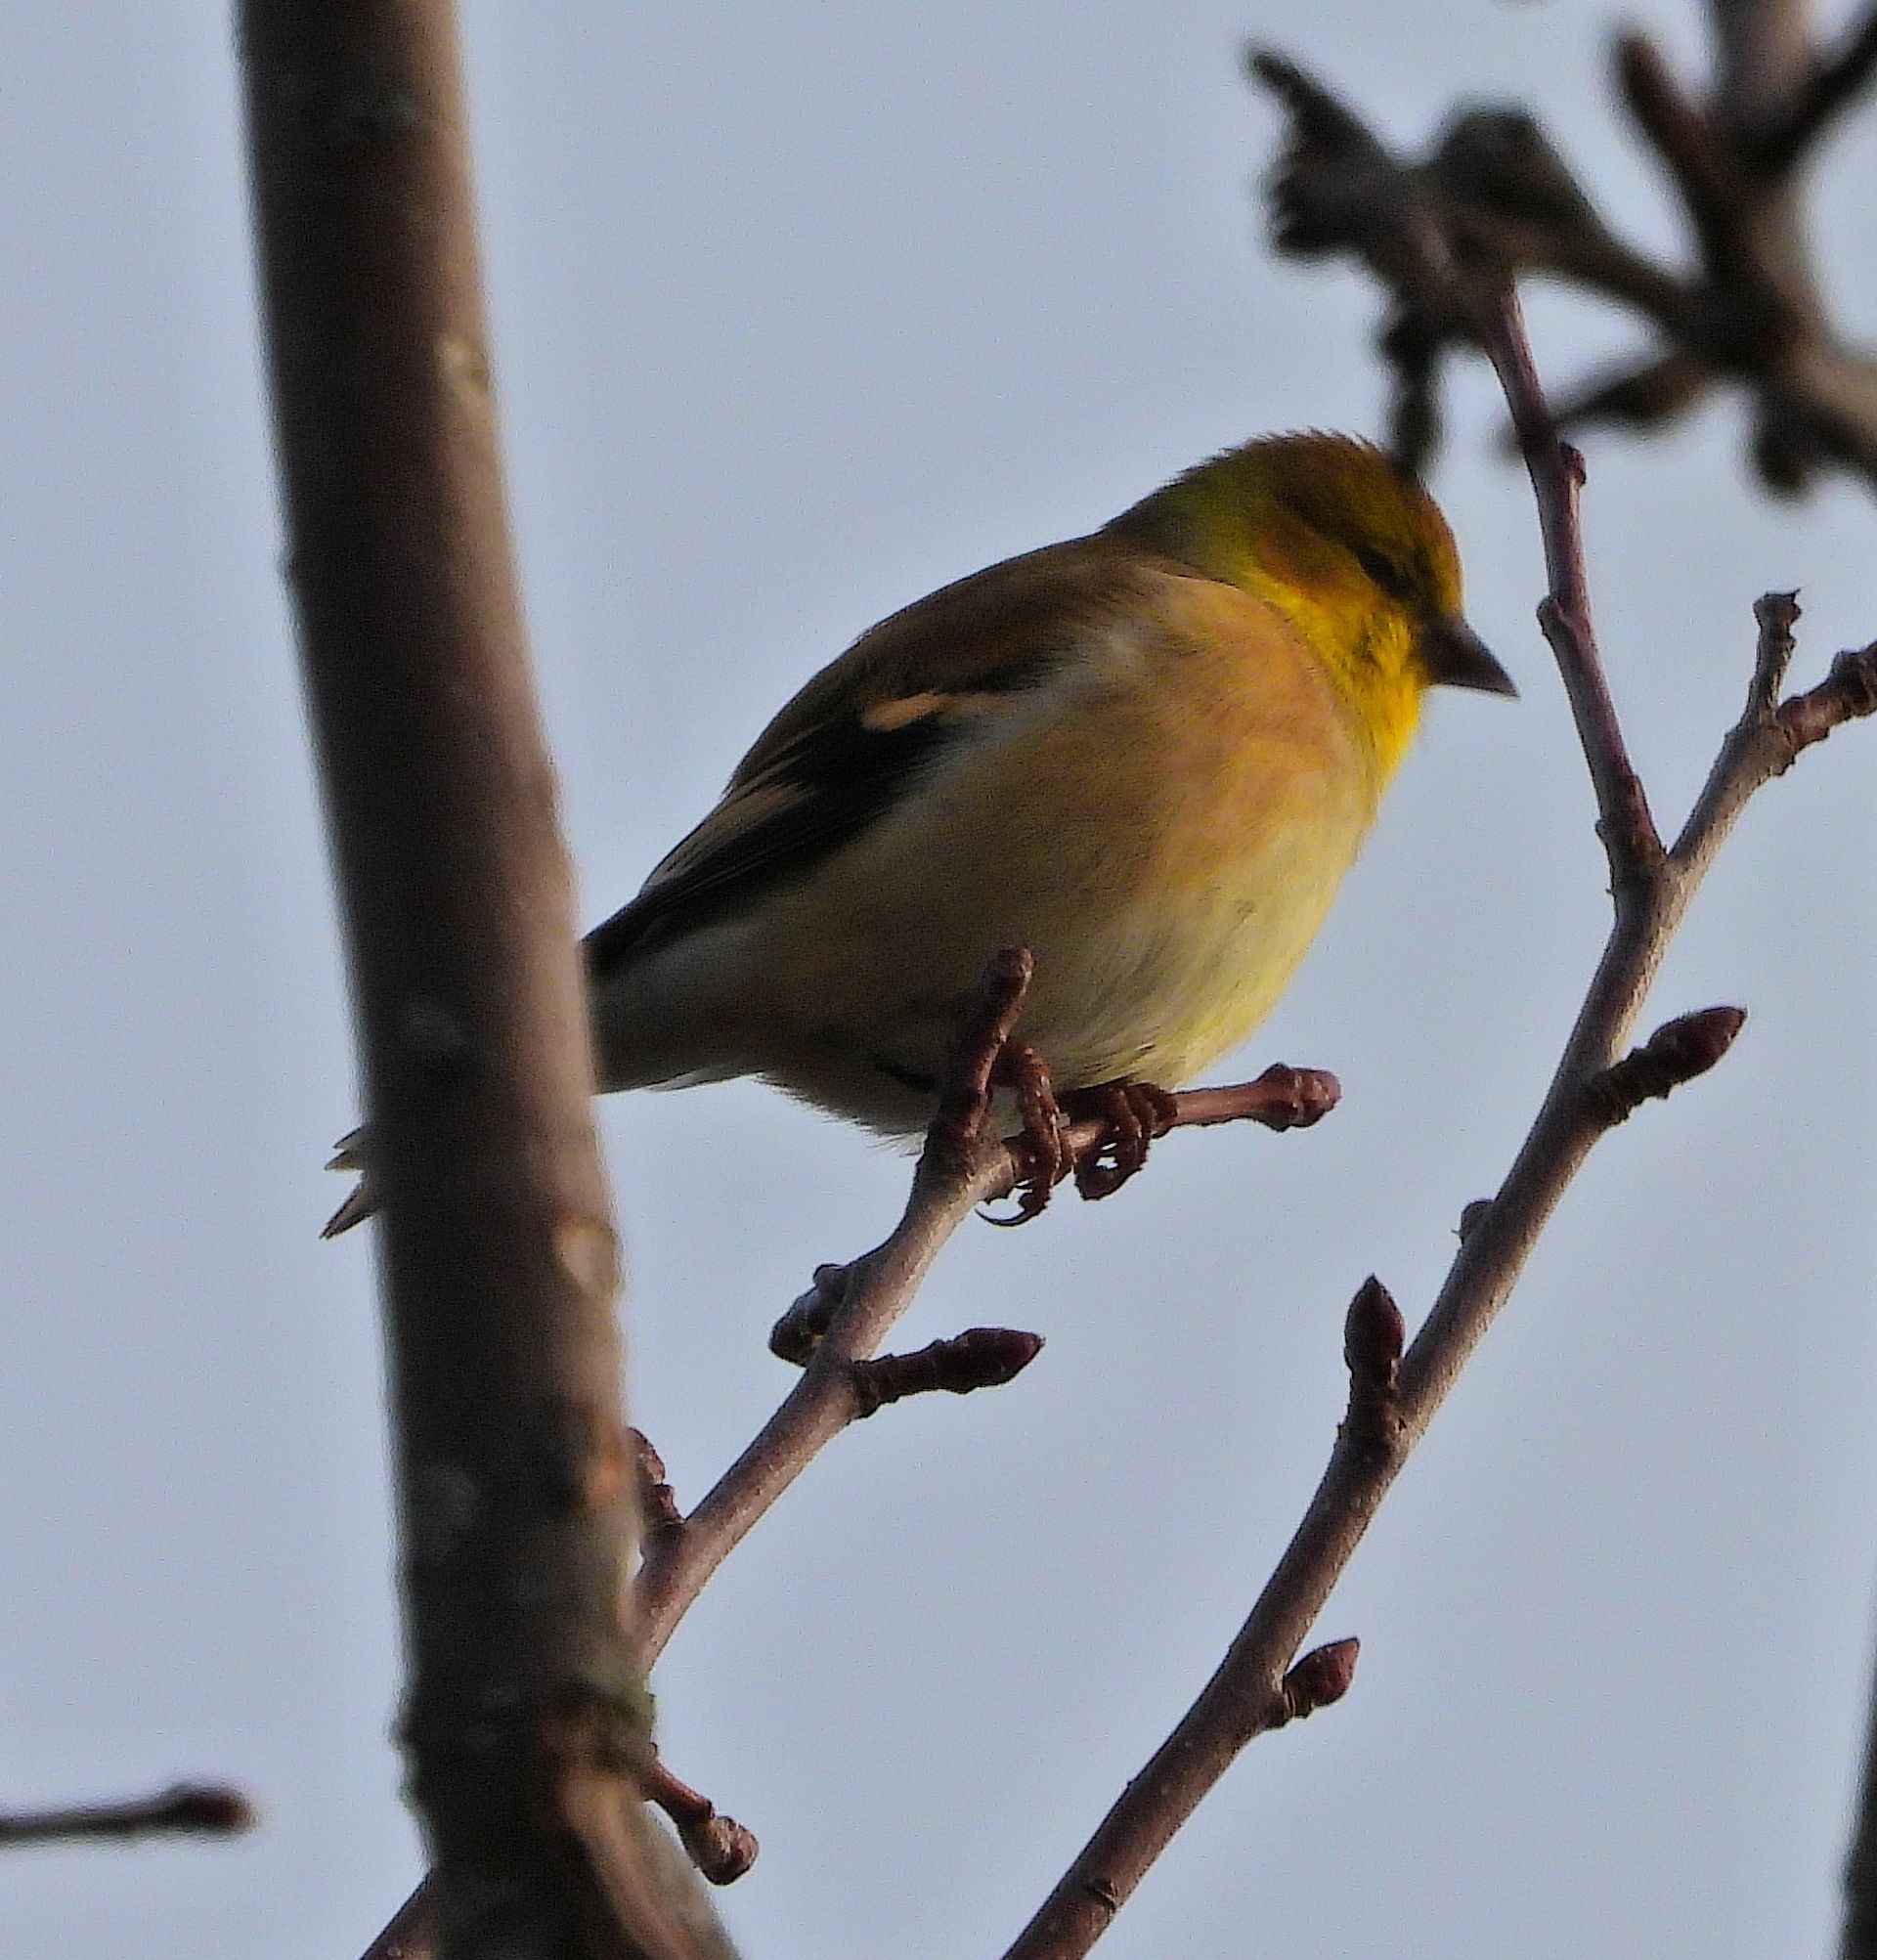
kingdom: Animalia
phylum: Chordata
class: Aves
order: Passeriformes
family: Fringillidae
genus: Spinus
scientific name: Spinus tristis
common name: American goldfinch
